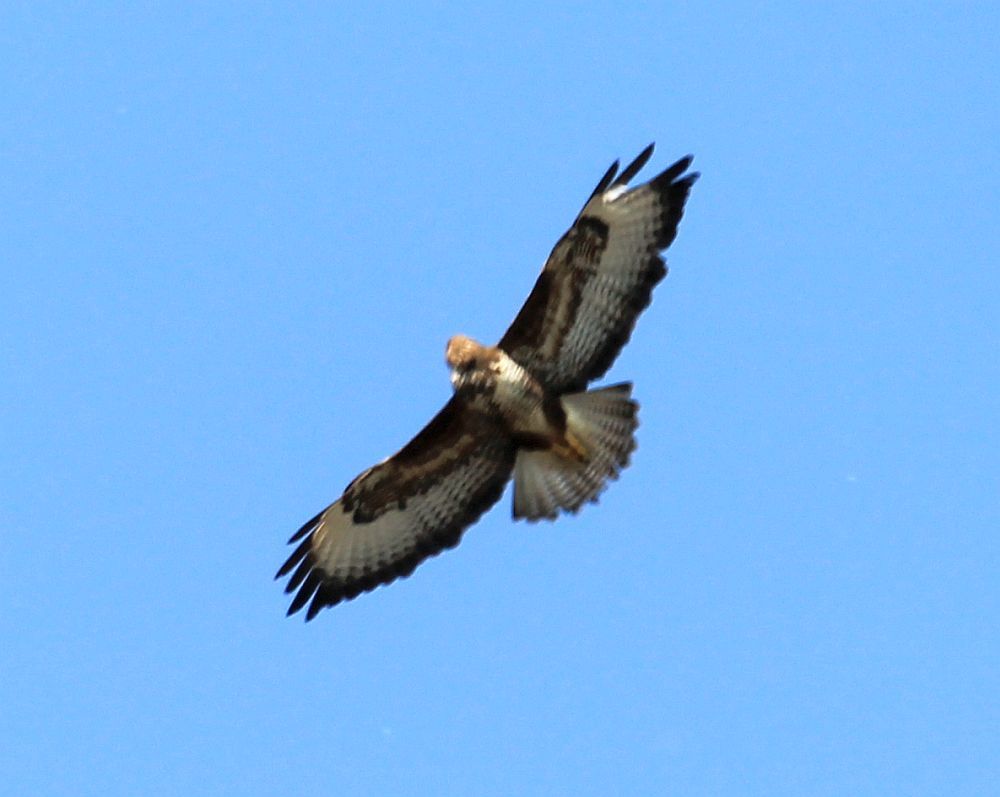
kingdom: Animalia
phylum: Chordata
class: Aves
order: Accipitriformes
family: Accipitridae
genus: Buteo
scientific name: Buteo buteo
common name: Common buzzard
